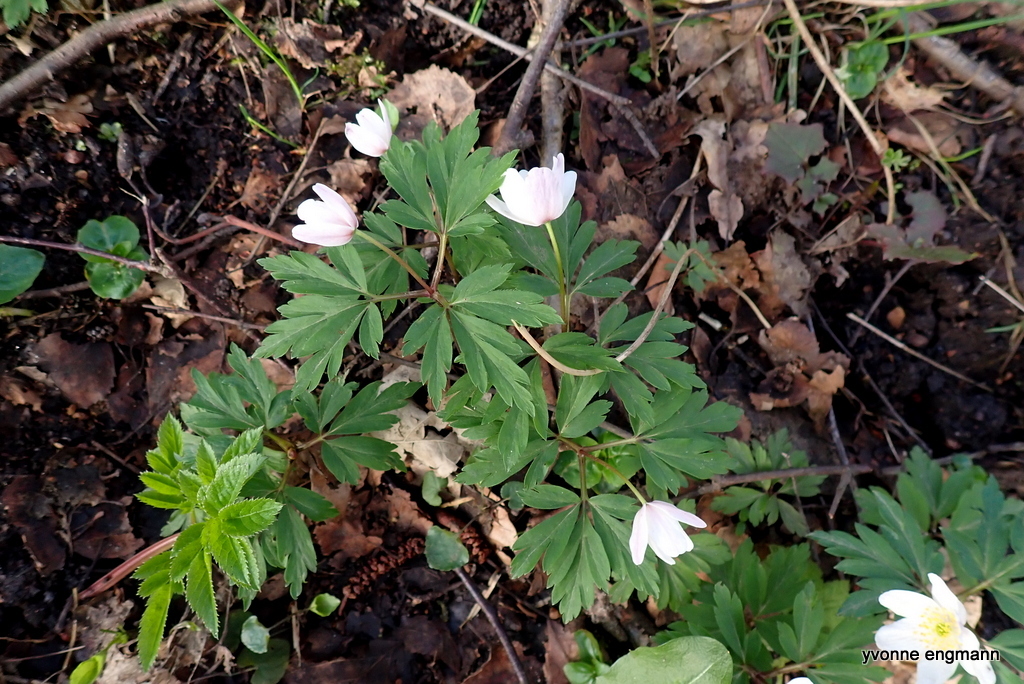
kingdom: Plantae
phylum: Tracheophyta
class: Magnoliopsida
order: Ranunculales
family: Ranunculaceae
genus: Anemone
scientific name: Anemone nemorosa
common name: Wood anemone
